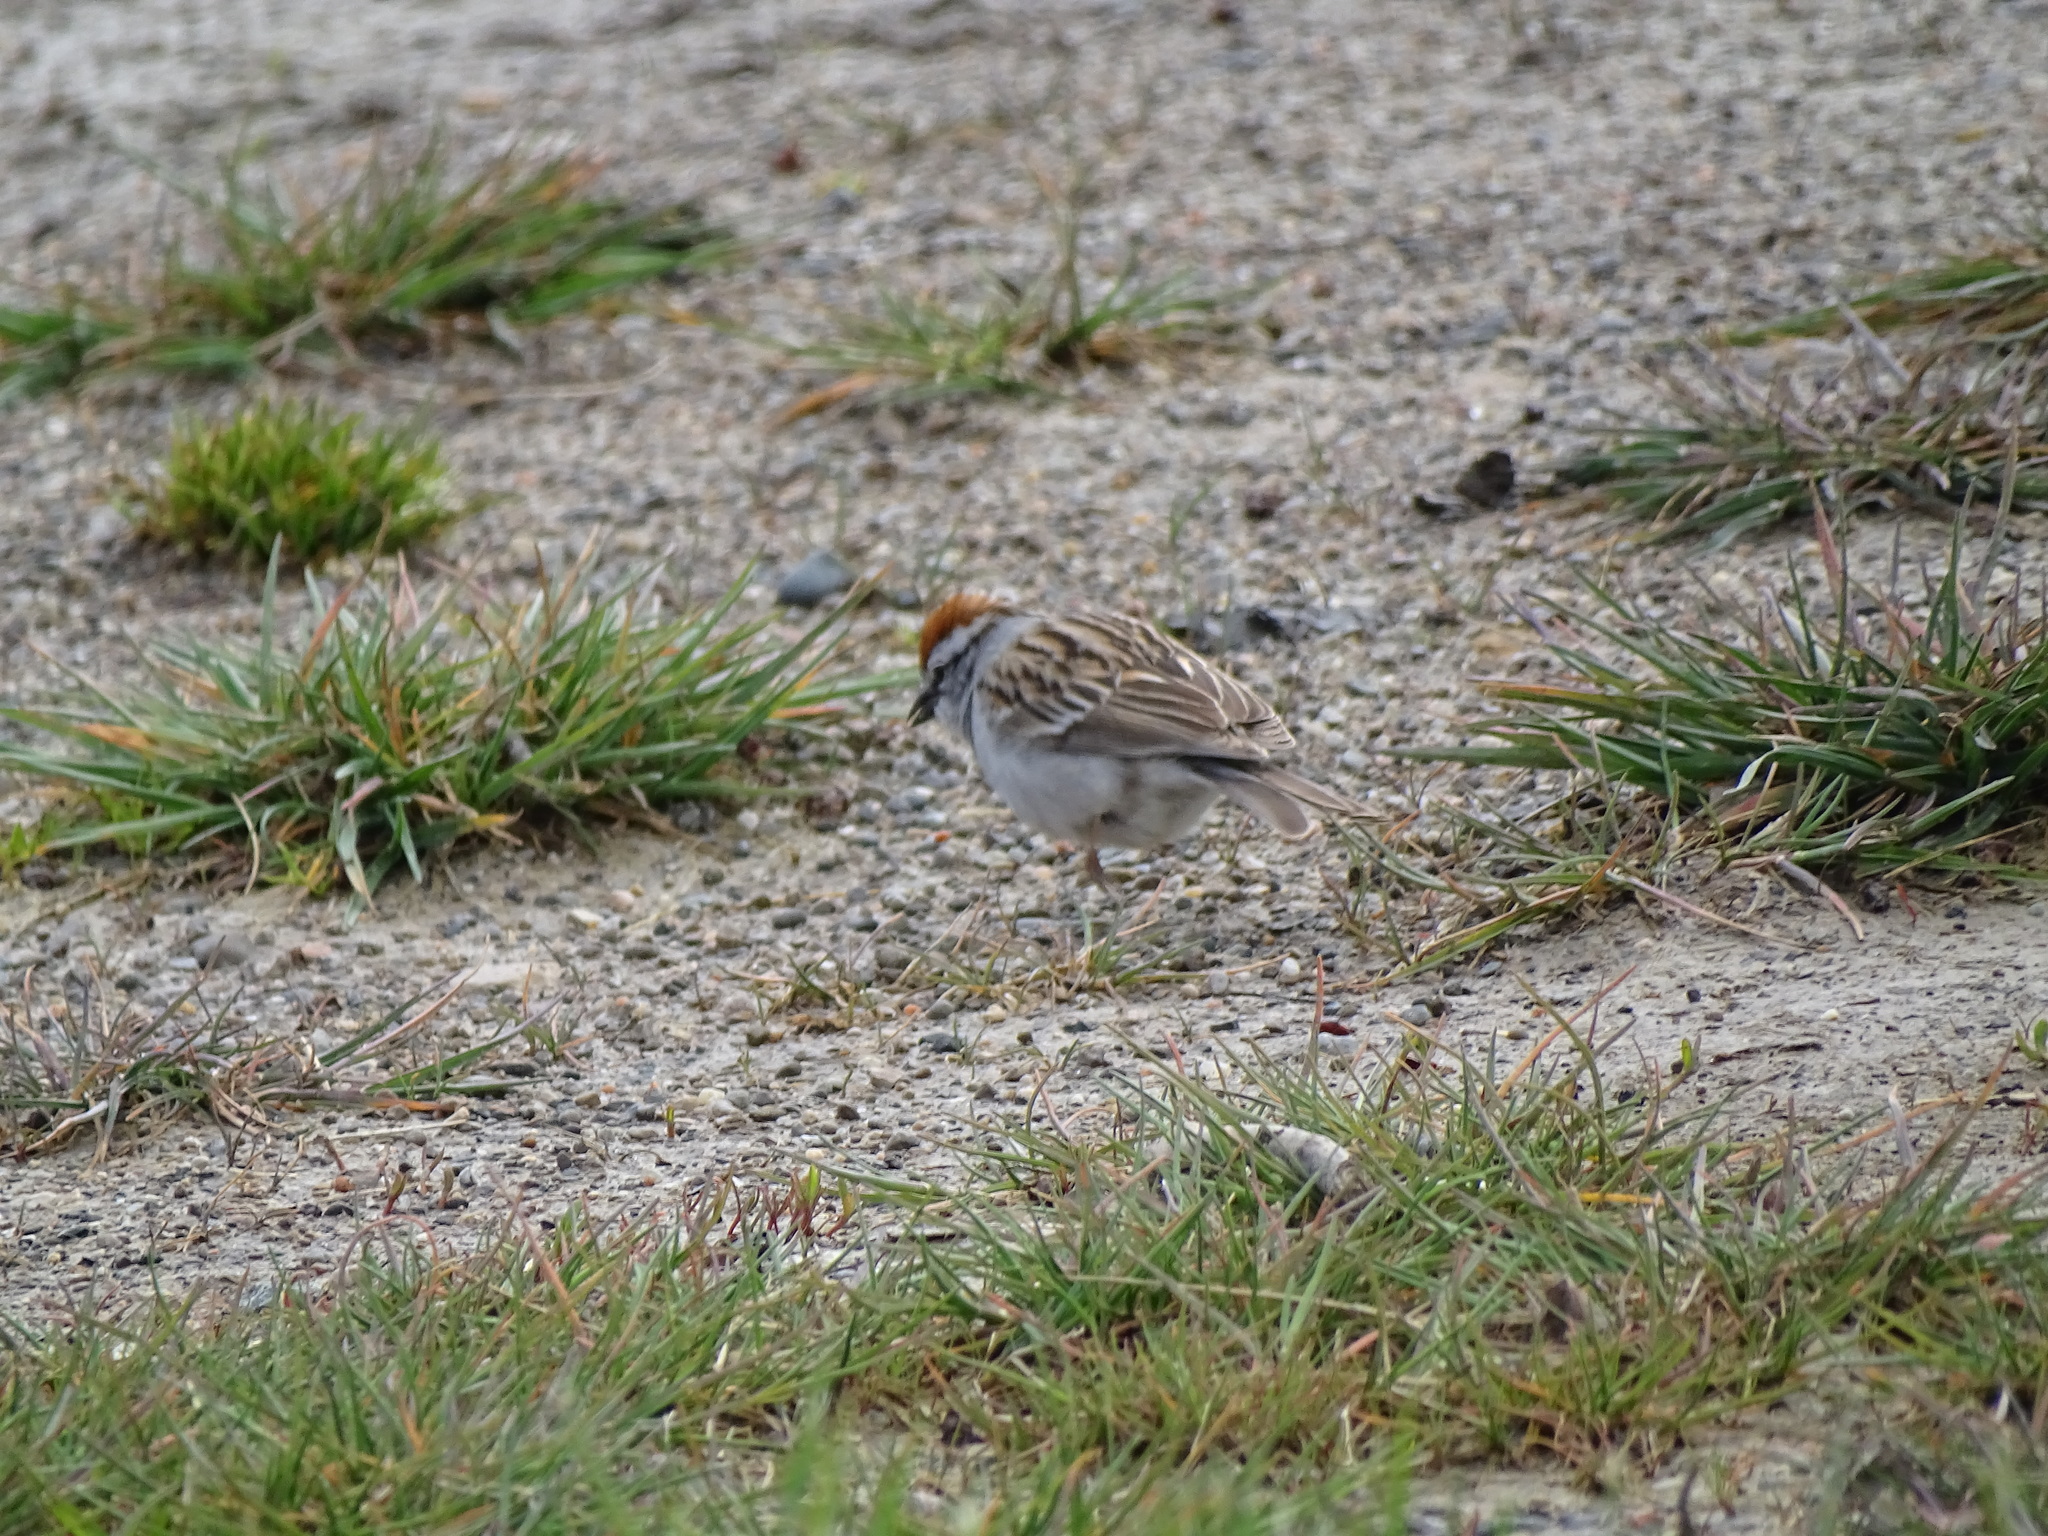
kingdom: Animalia
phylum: Chordata
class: Aves
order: Passeriformes
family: Passerellidae
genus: Spizella
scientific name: Spizella passerina
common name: Chipping sparrow
